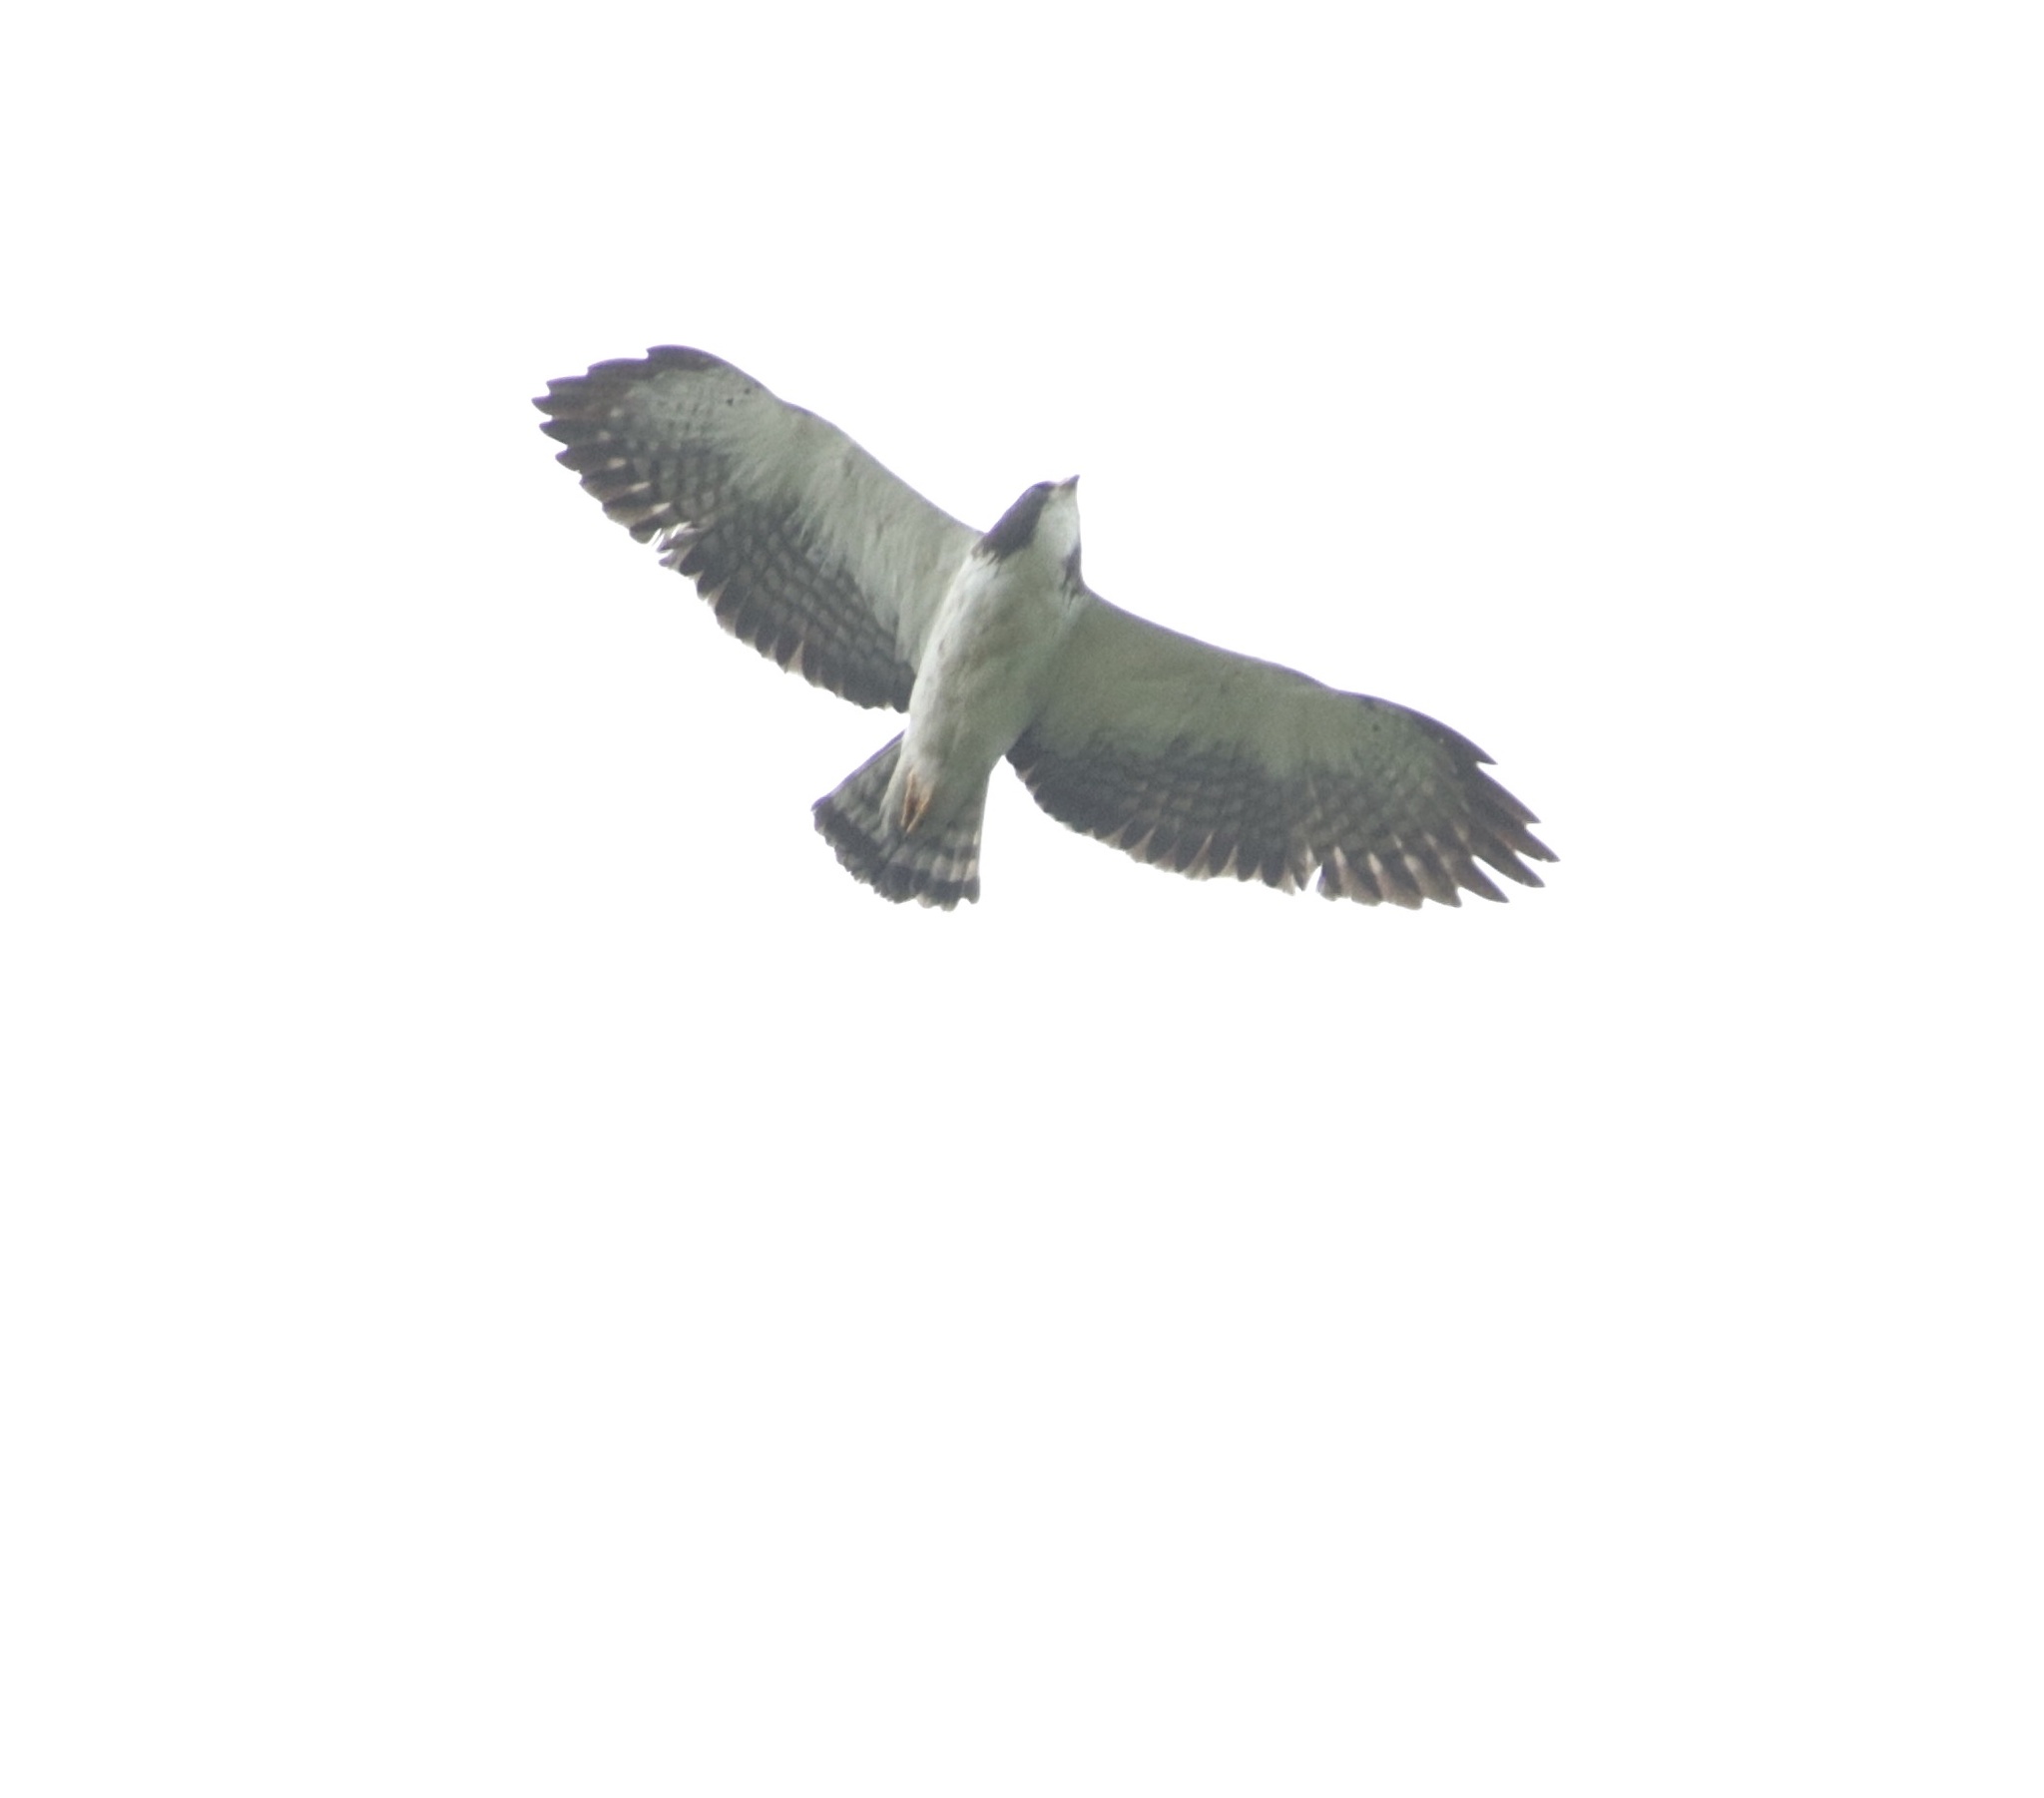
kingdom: Animalia
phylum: Chordata
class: Aves
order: Accipitriformes
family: Accipitridae
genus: Buteo
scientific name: Buteo brachyurus
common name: Short-tailed hawk
